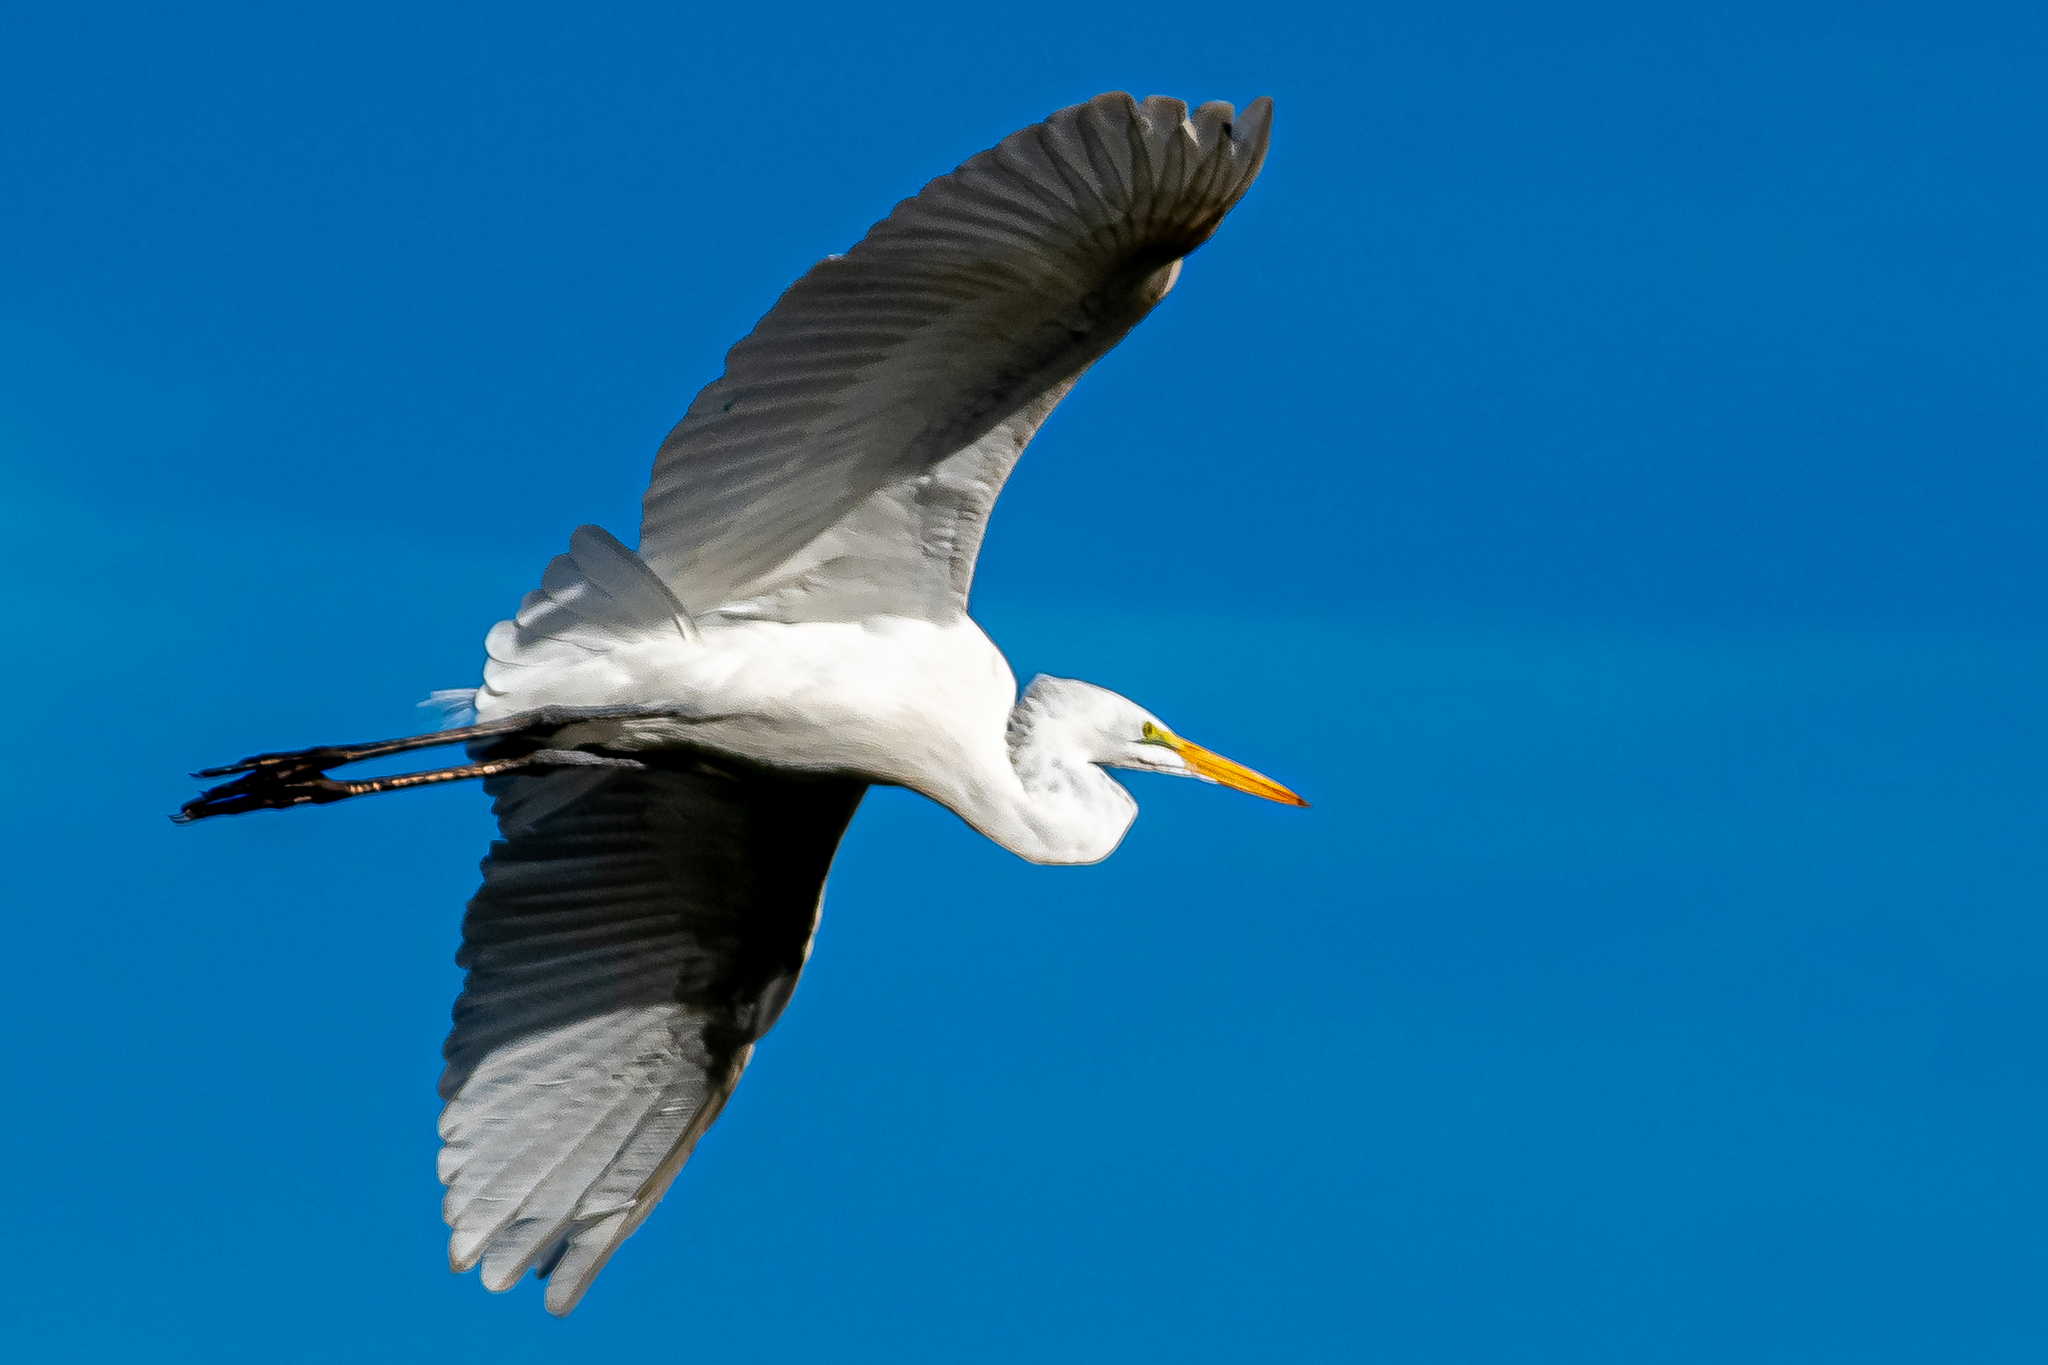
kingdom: Animalia
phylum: Chordata
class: Aves
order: Pelecaniformes
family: Ardeidae
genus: Ardea
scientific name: Ardea alba
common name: Great egret
